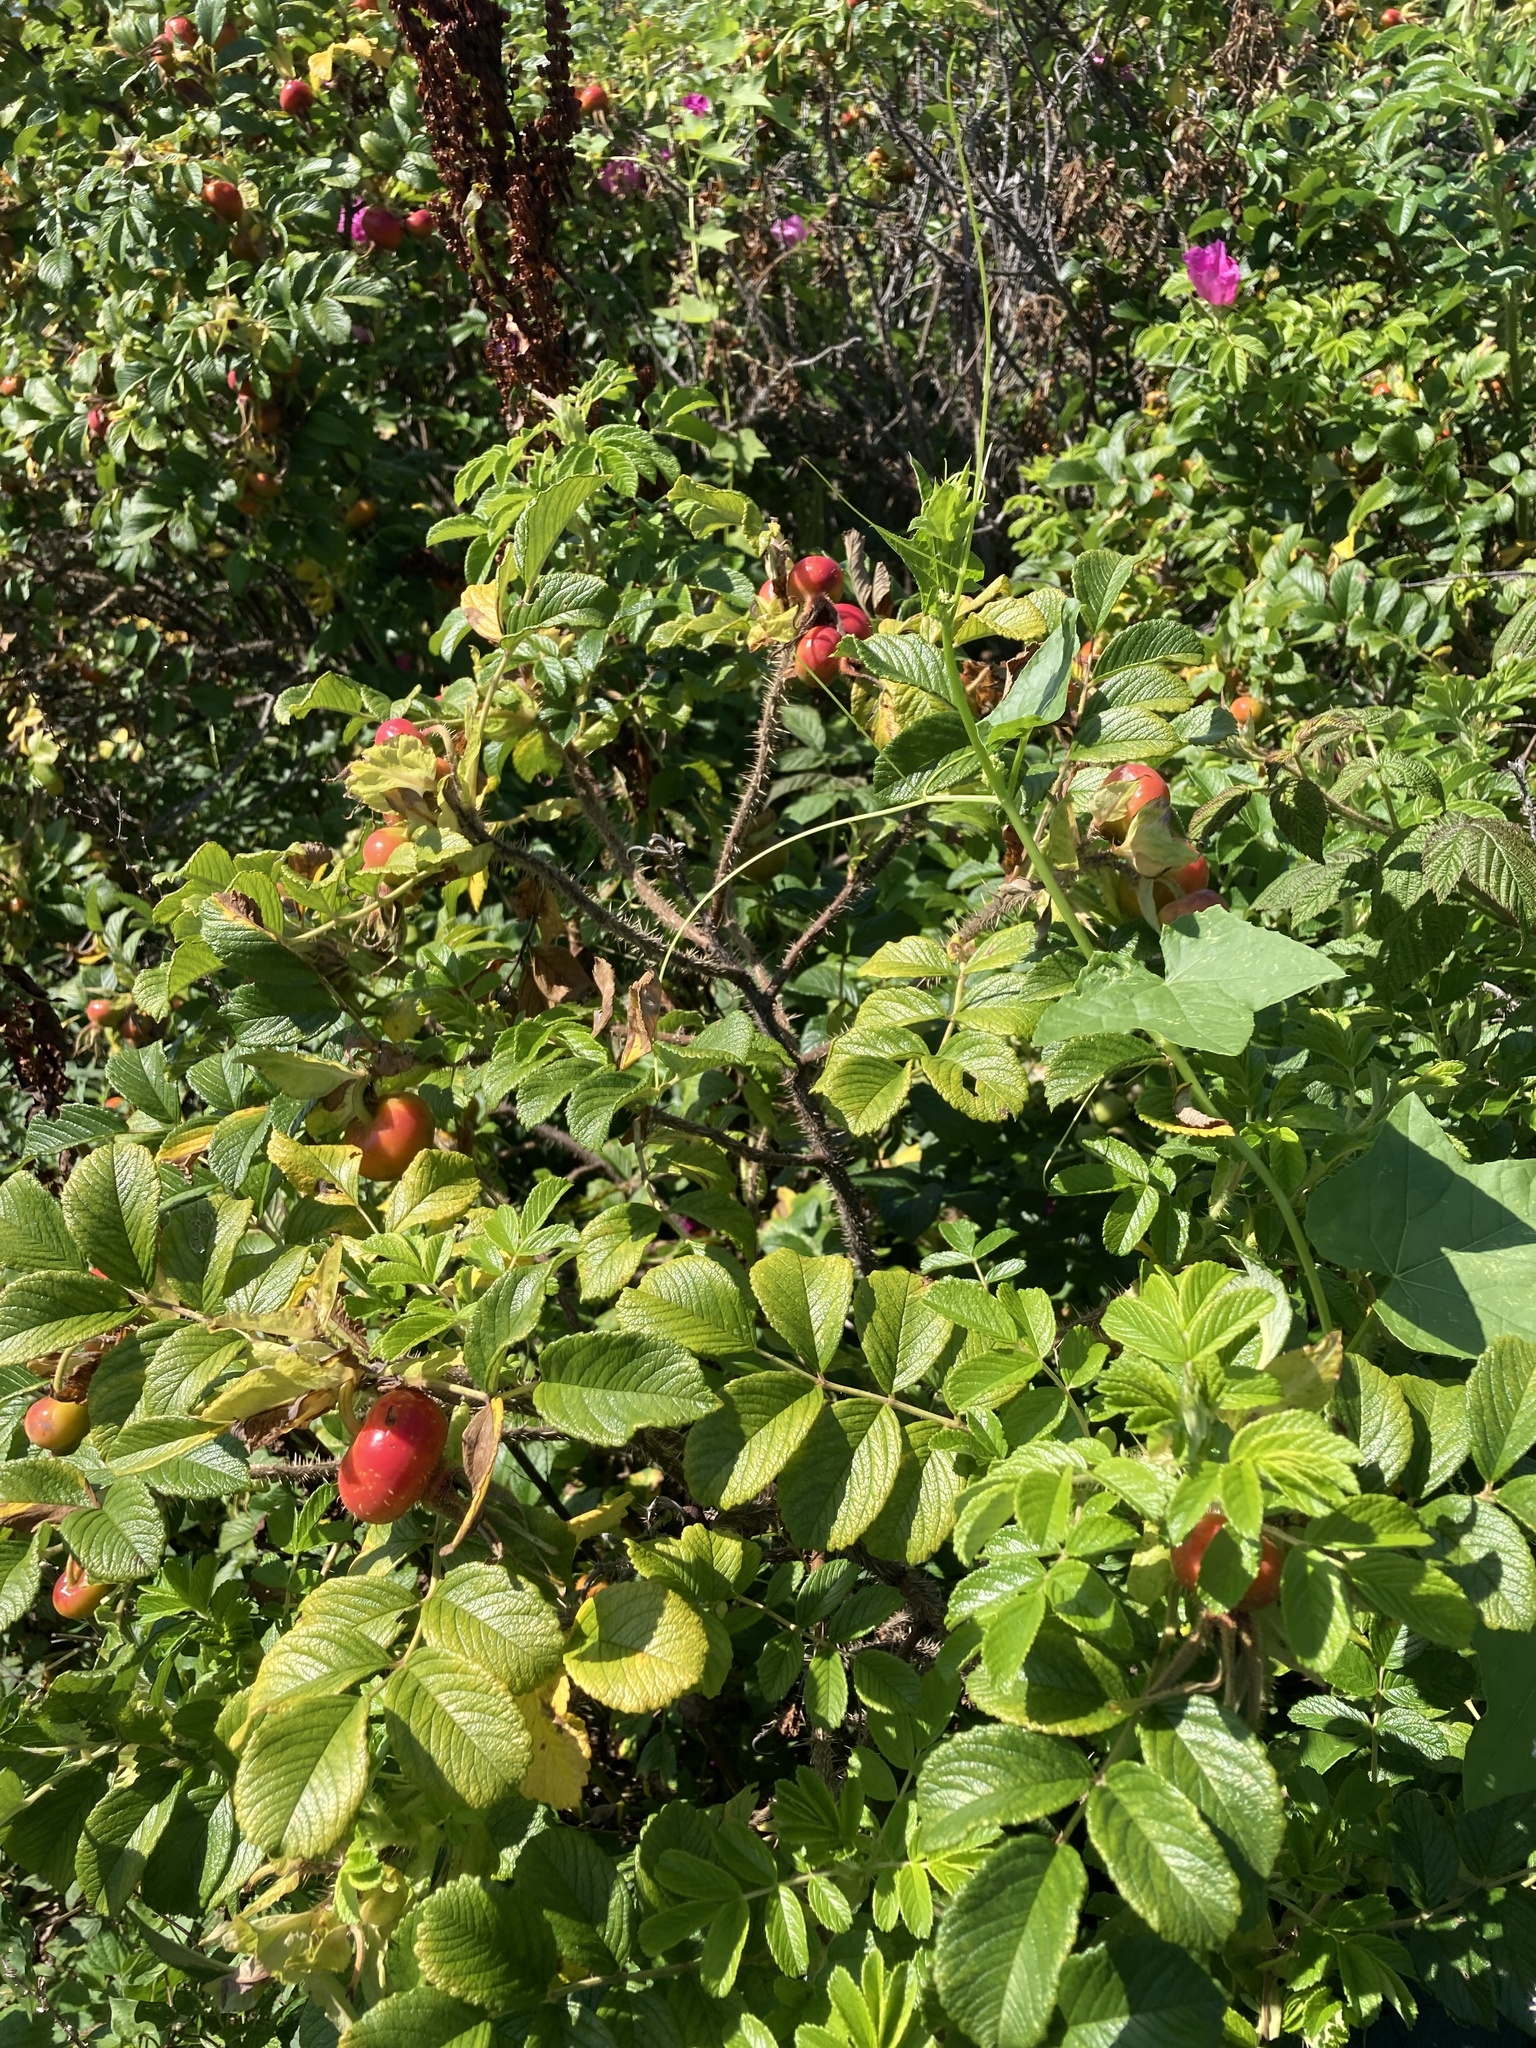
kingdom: Plantae
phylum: Tracheophyta
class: Magnoliopsida
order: Rosales
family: Rosaceae
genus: Rosa
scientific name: Rosa rugosa
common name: Japanese rose
